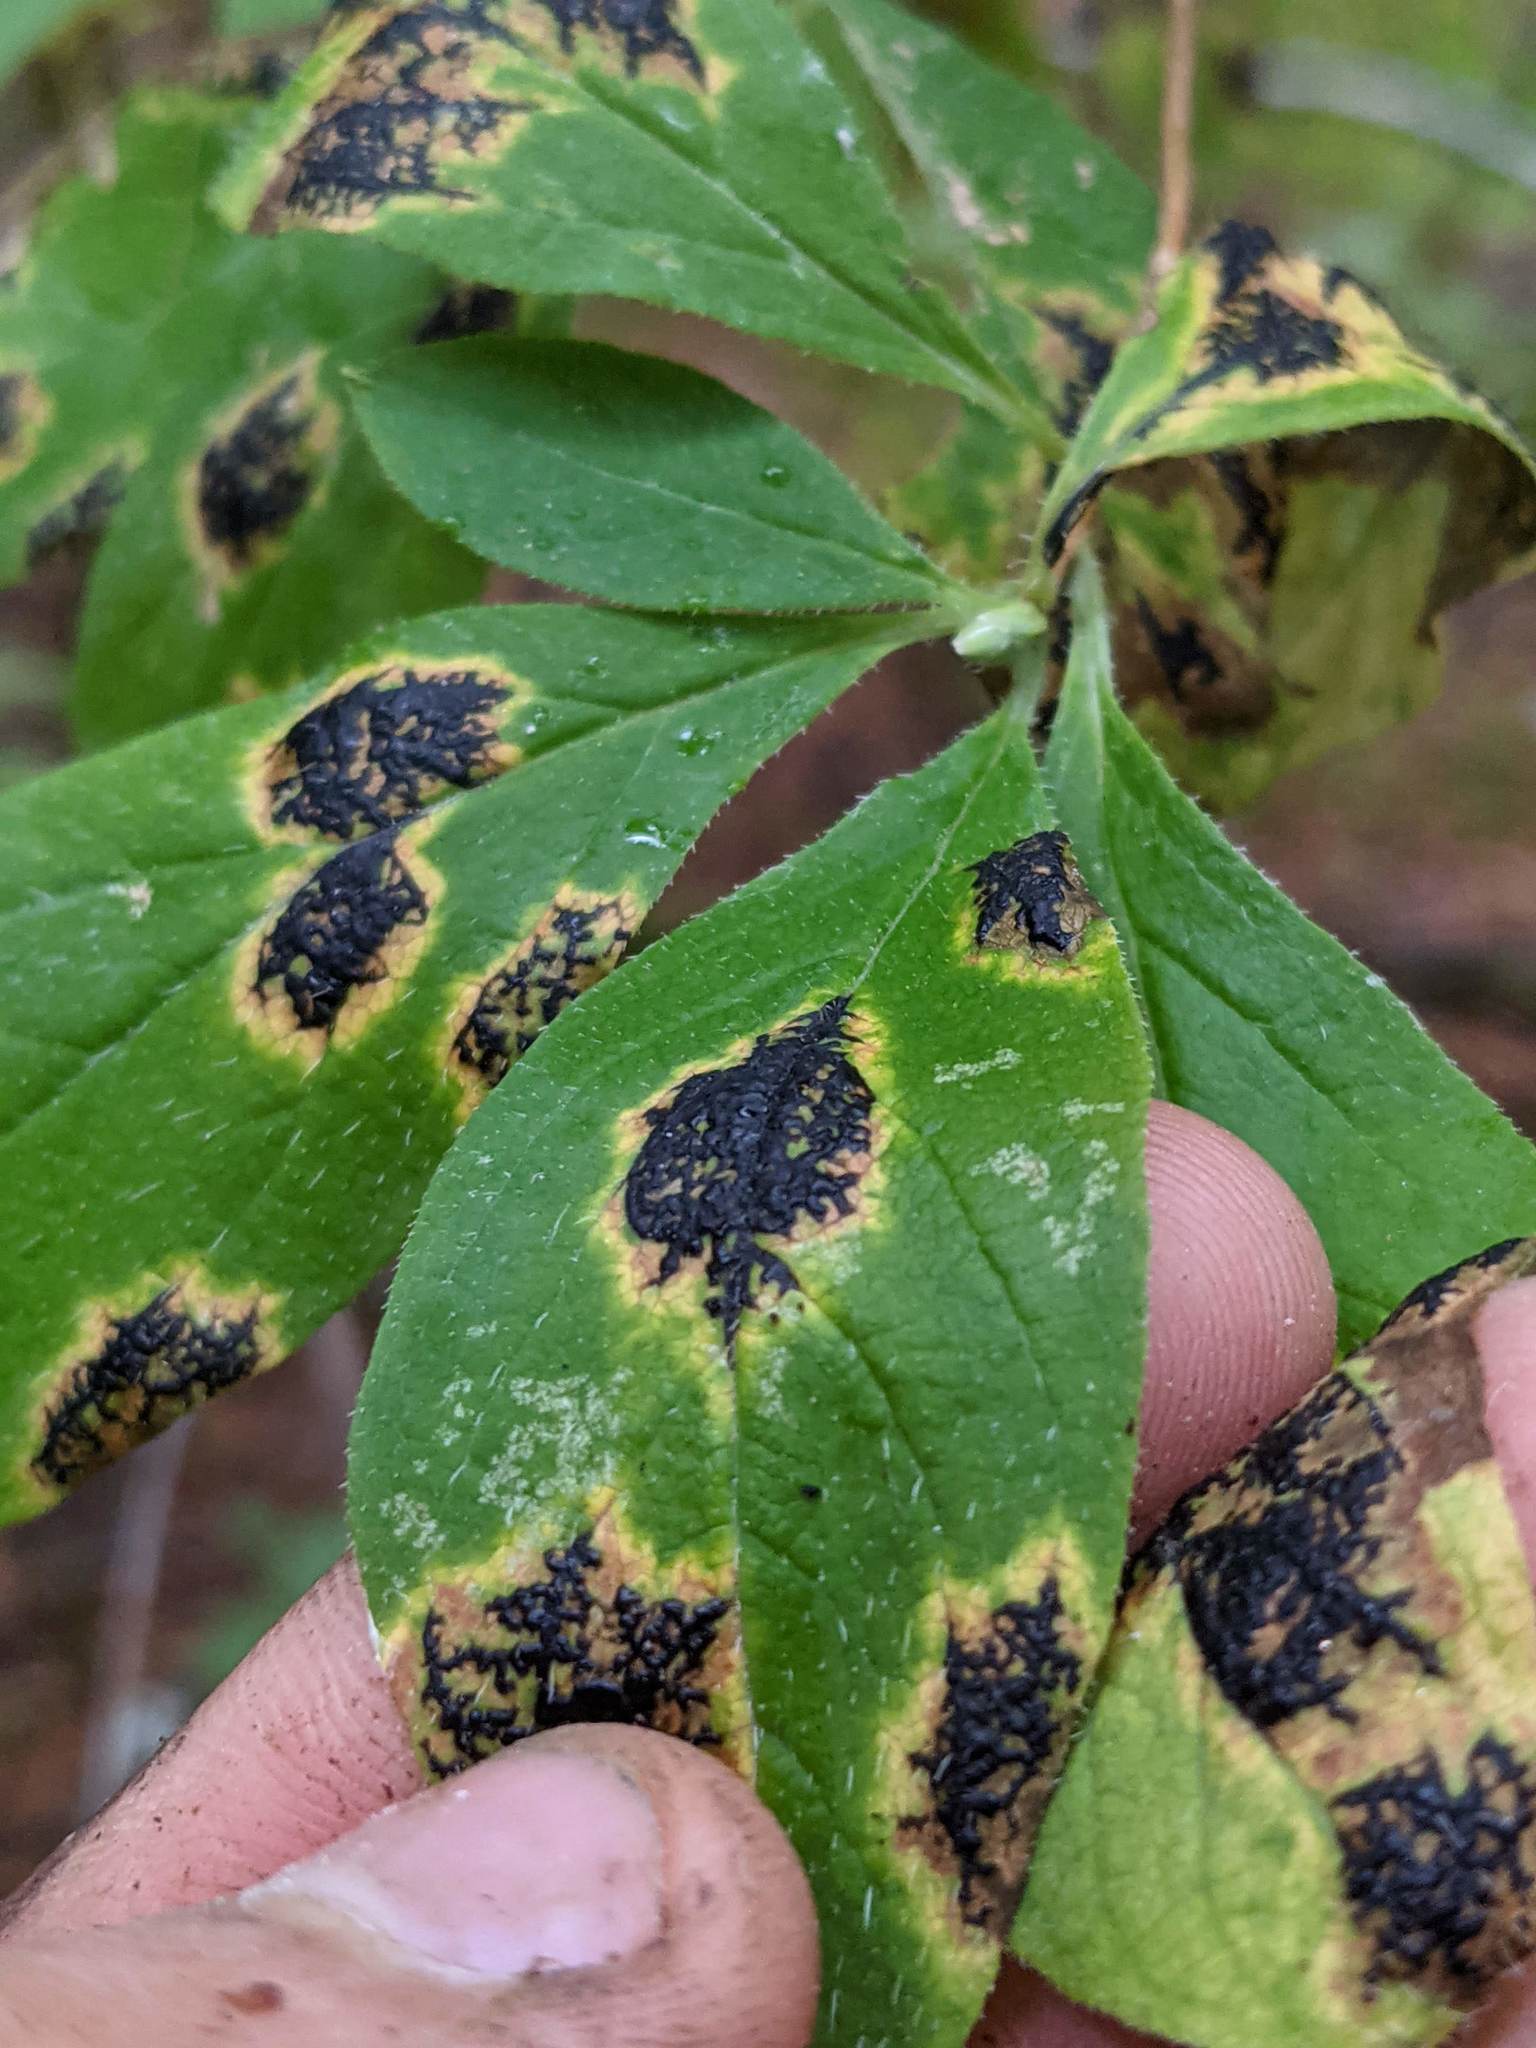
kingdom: Fungi
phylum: Ascomycota
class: Leotiomycetes
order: Rhytismatales
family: Rhytismataceae
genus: Rhytisma
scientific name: Rhytisma
